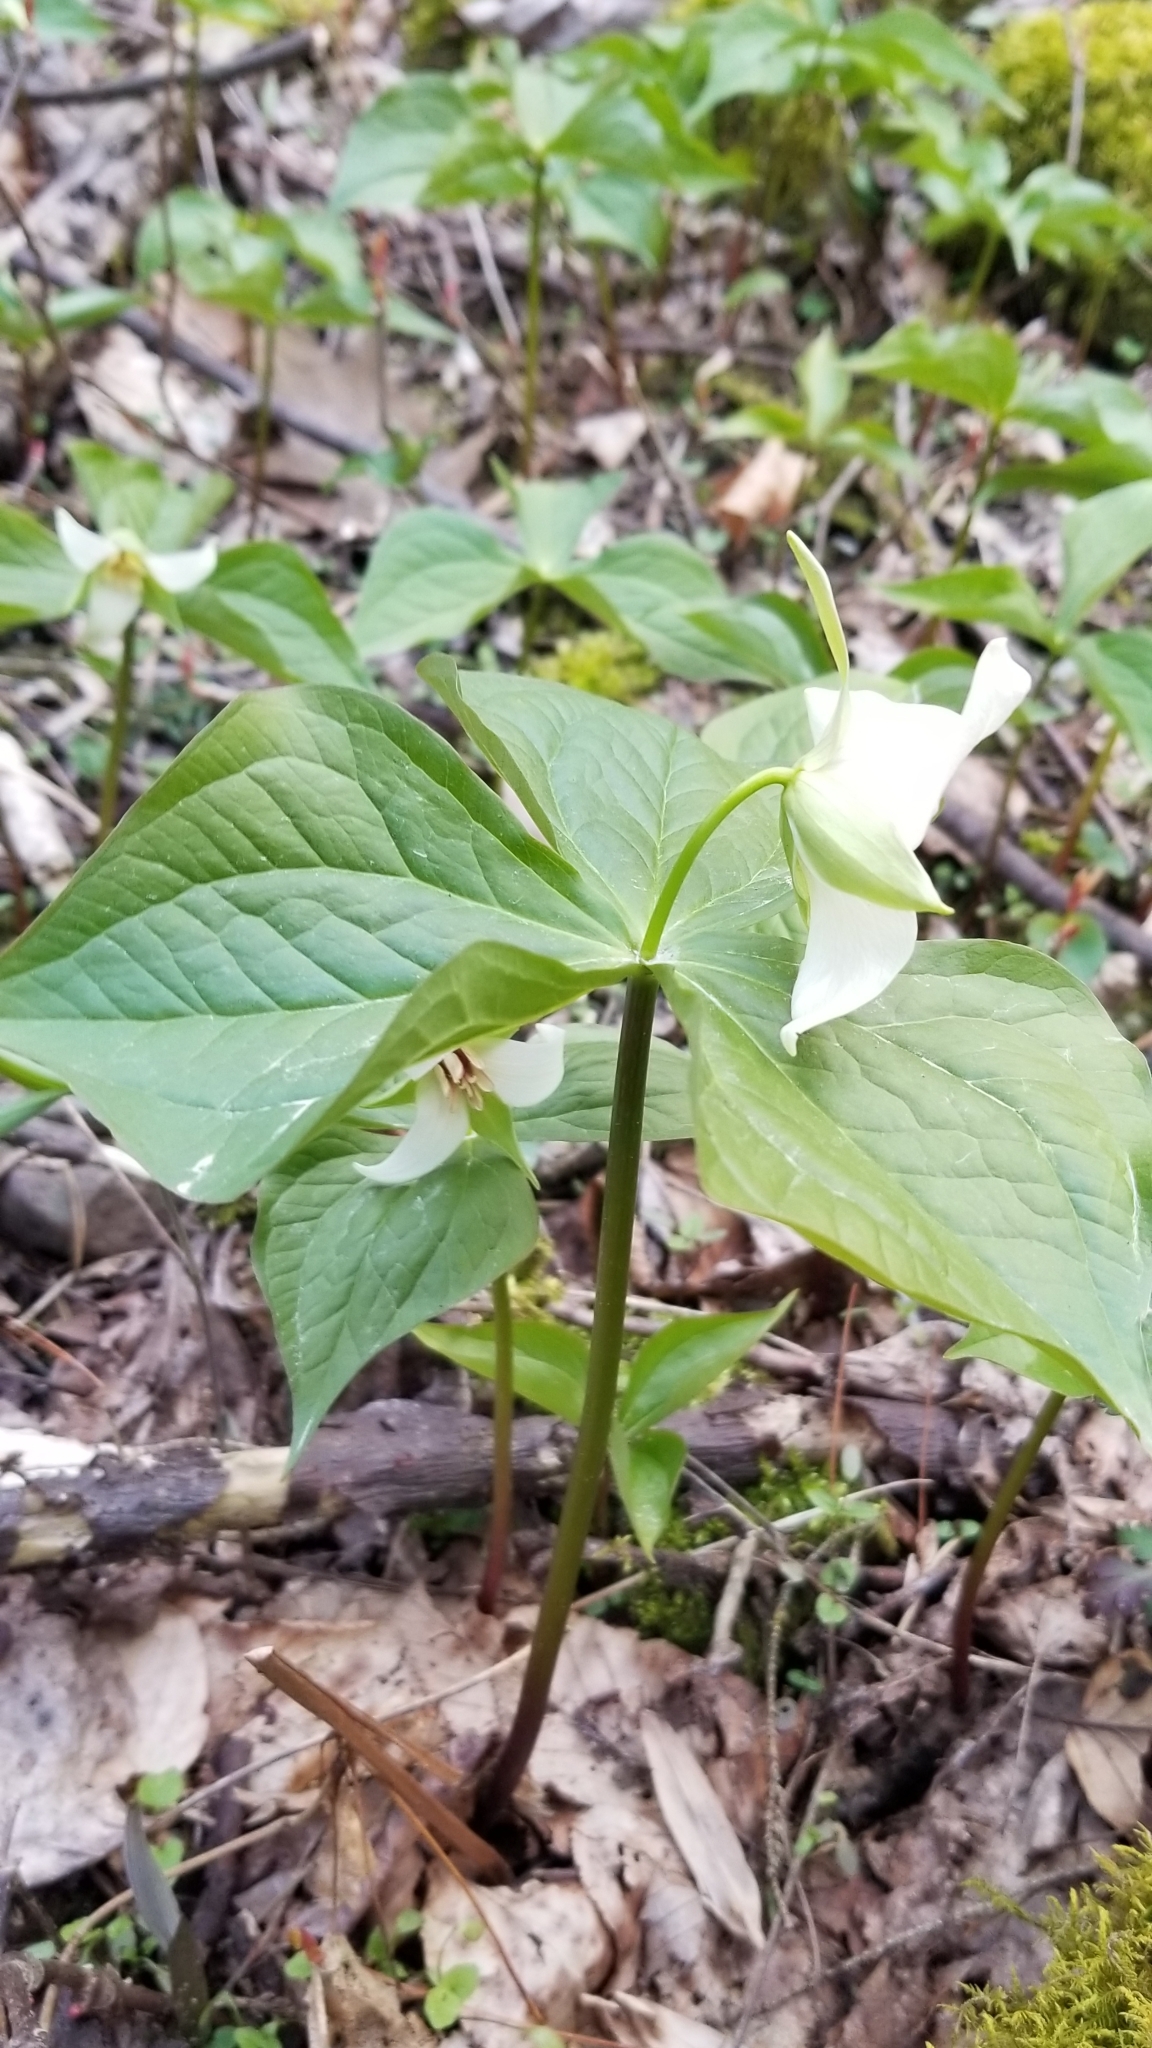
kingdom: Plantae
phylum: Tracheophyta
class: Liliopsida
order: Liliales
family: Melanthiaceae
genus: Trillium
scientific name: Trillium erectum
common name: Purple trillium
